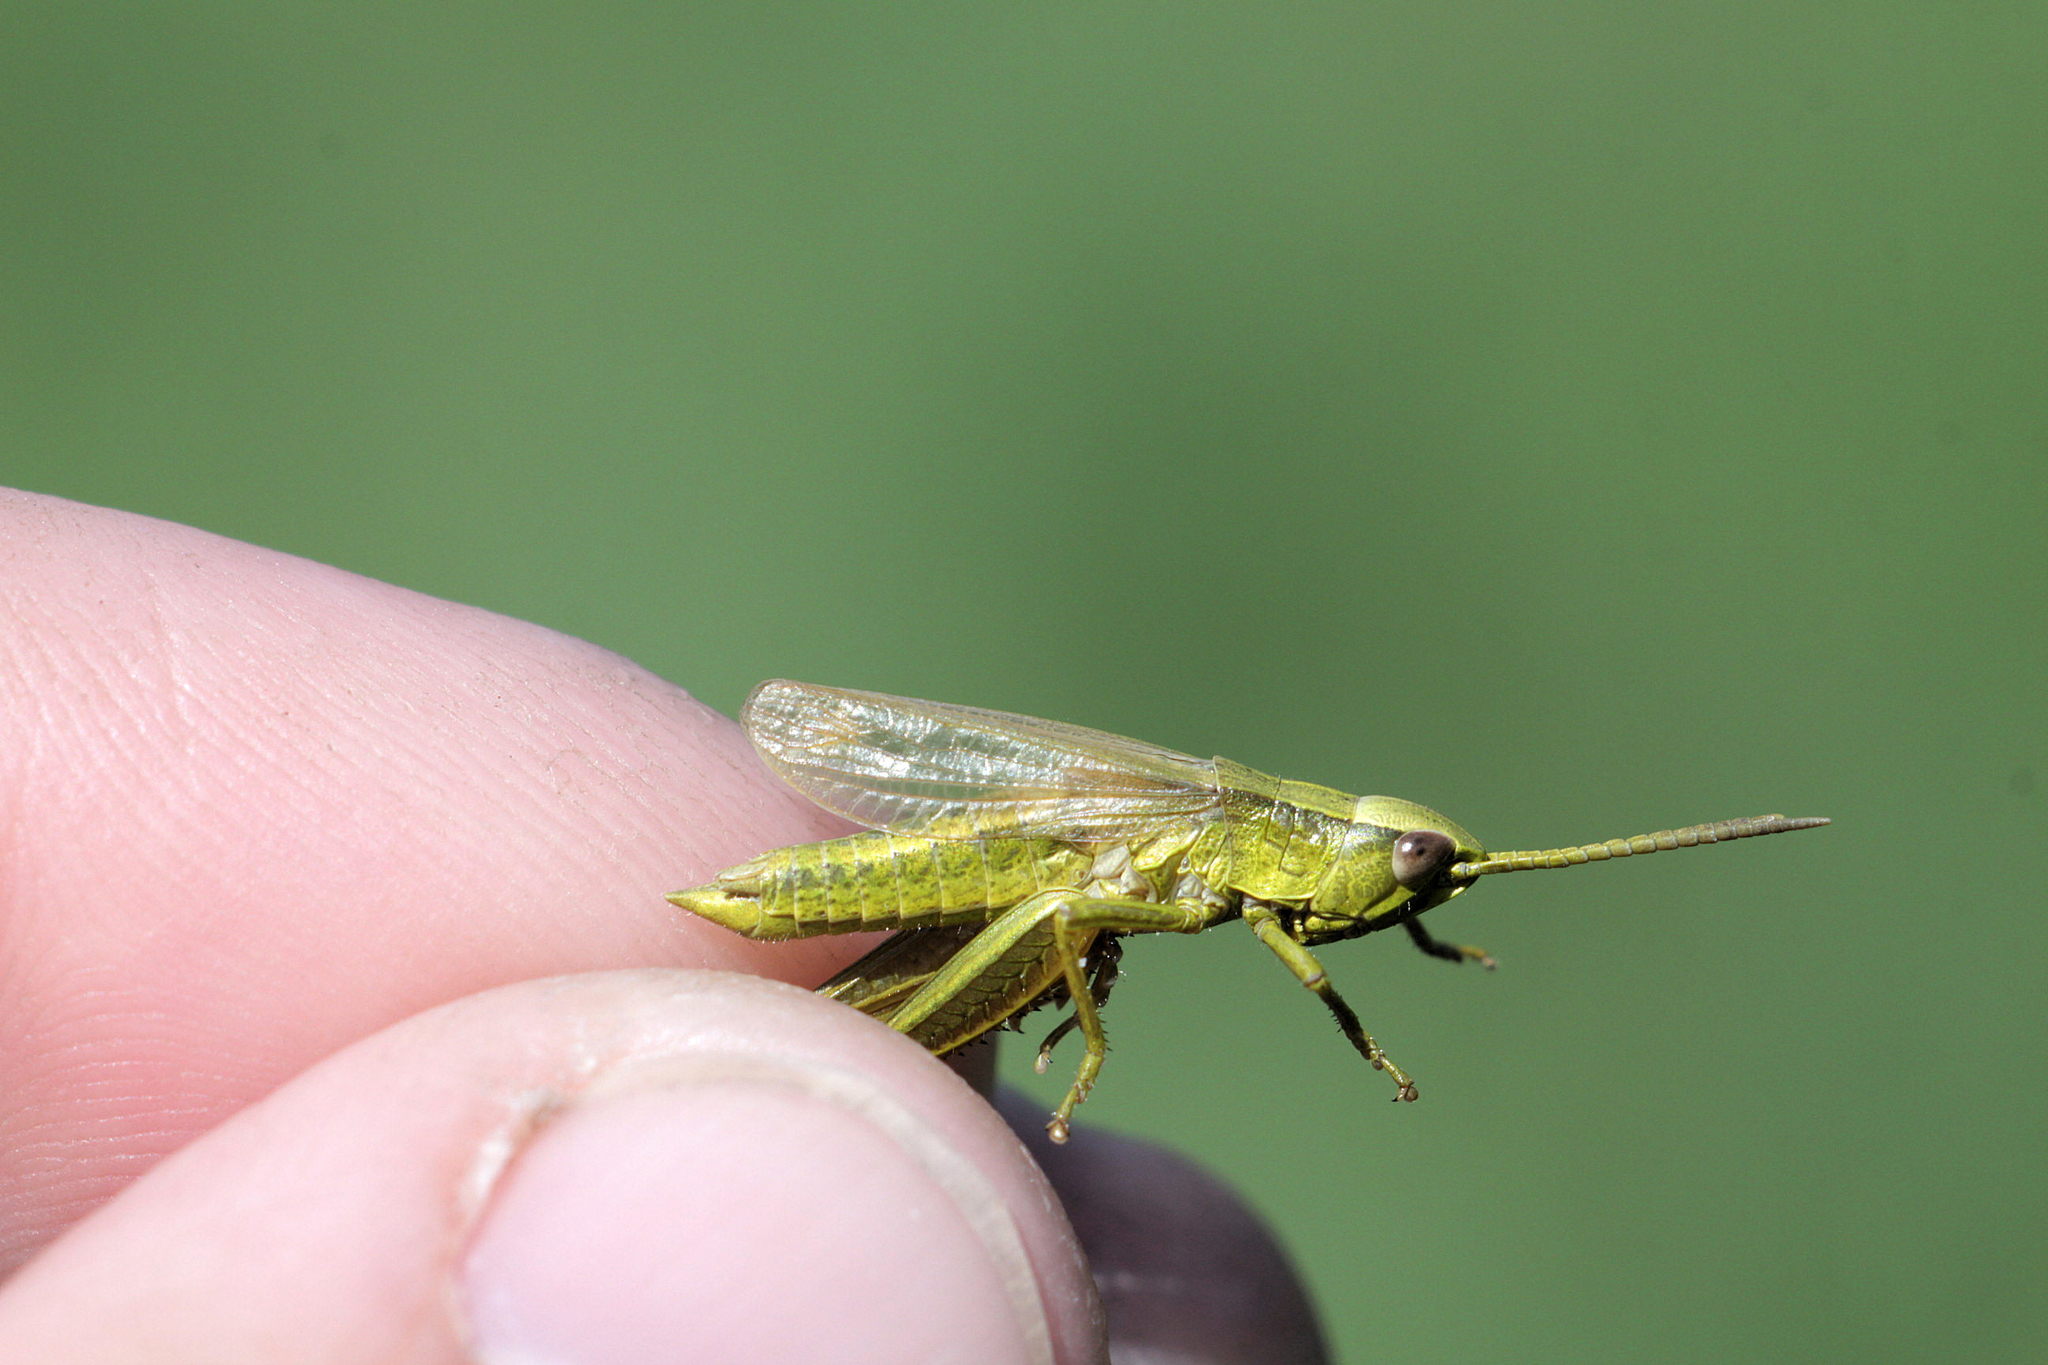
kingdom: Animalia
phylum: Arthropoda
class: Insecta
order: Orthoptera
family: Acrididae
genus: Chrysochraon
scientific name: Chrysochraon dispar
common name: Large gold grasshopper
